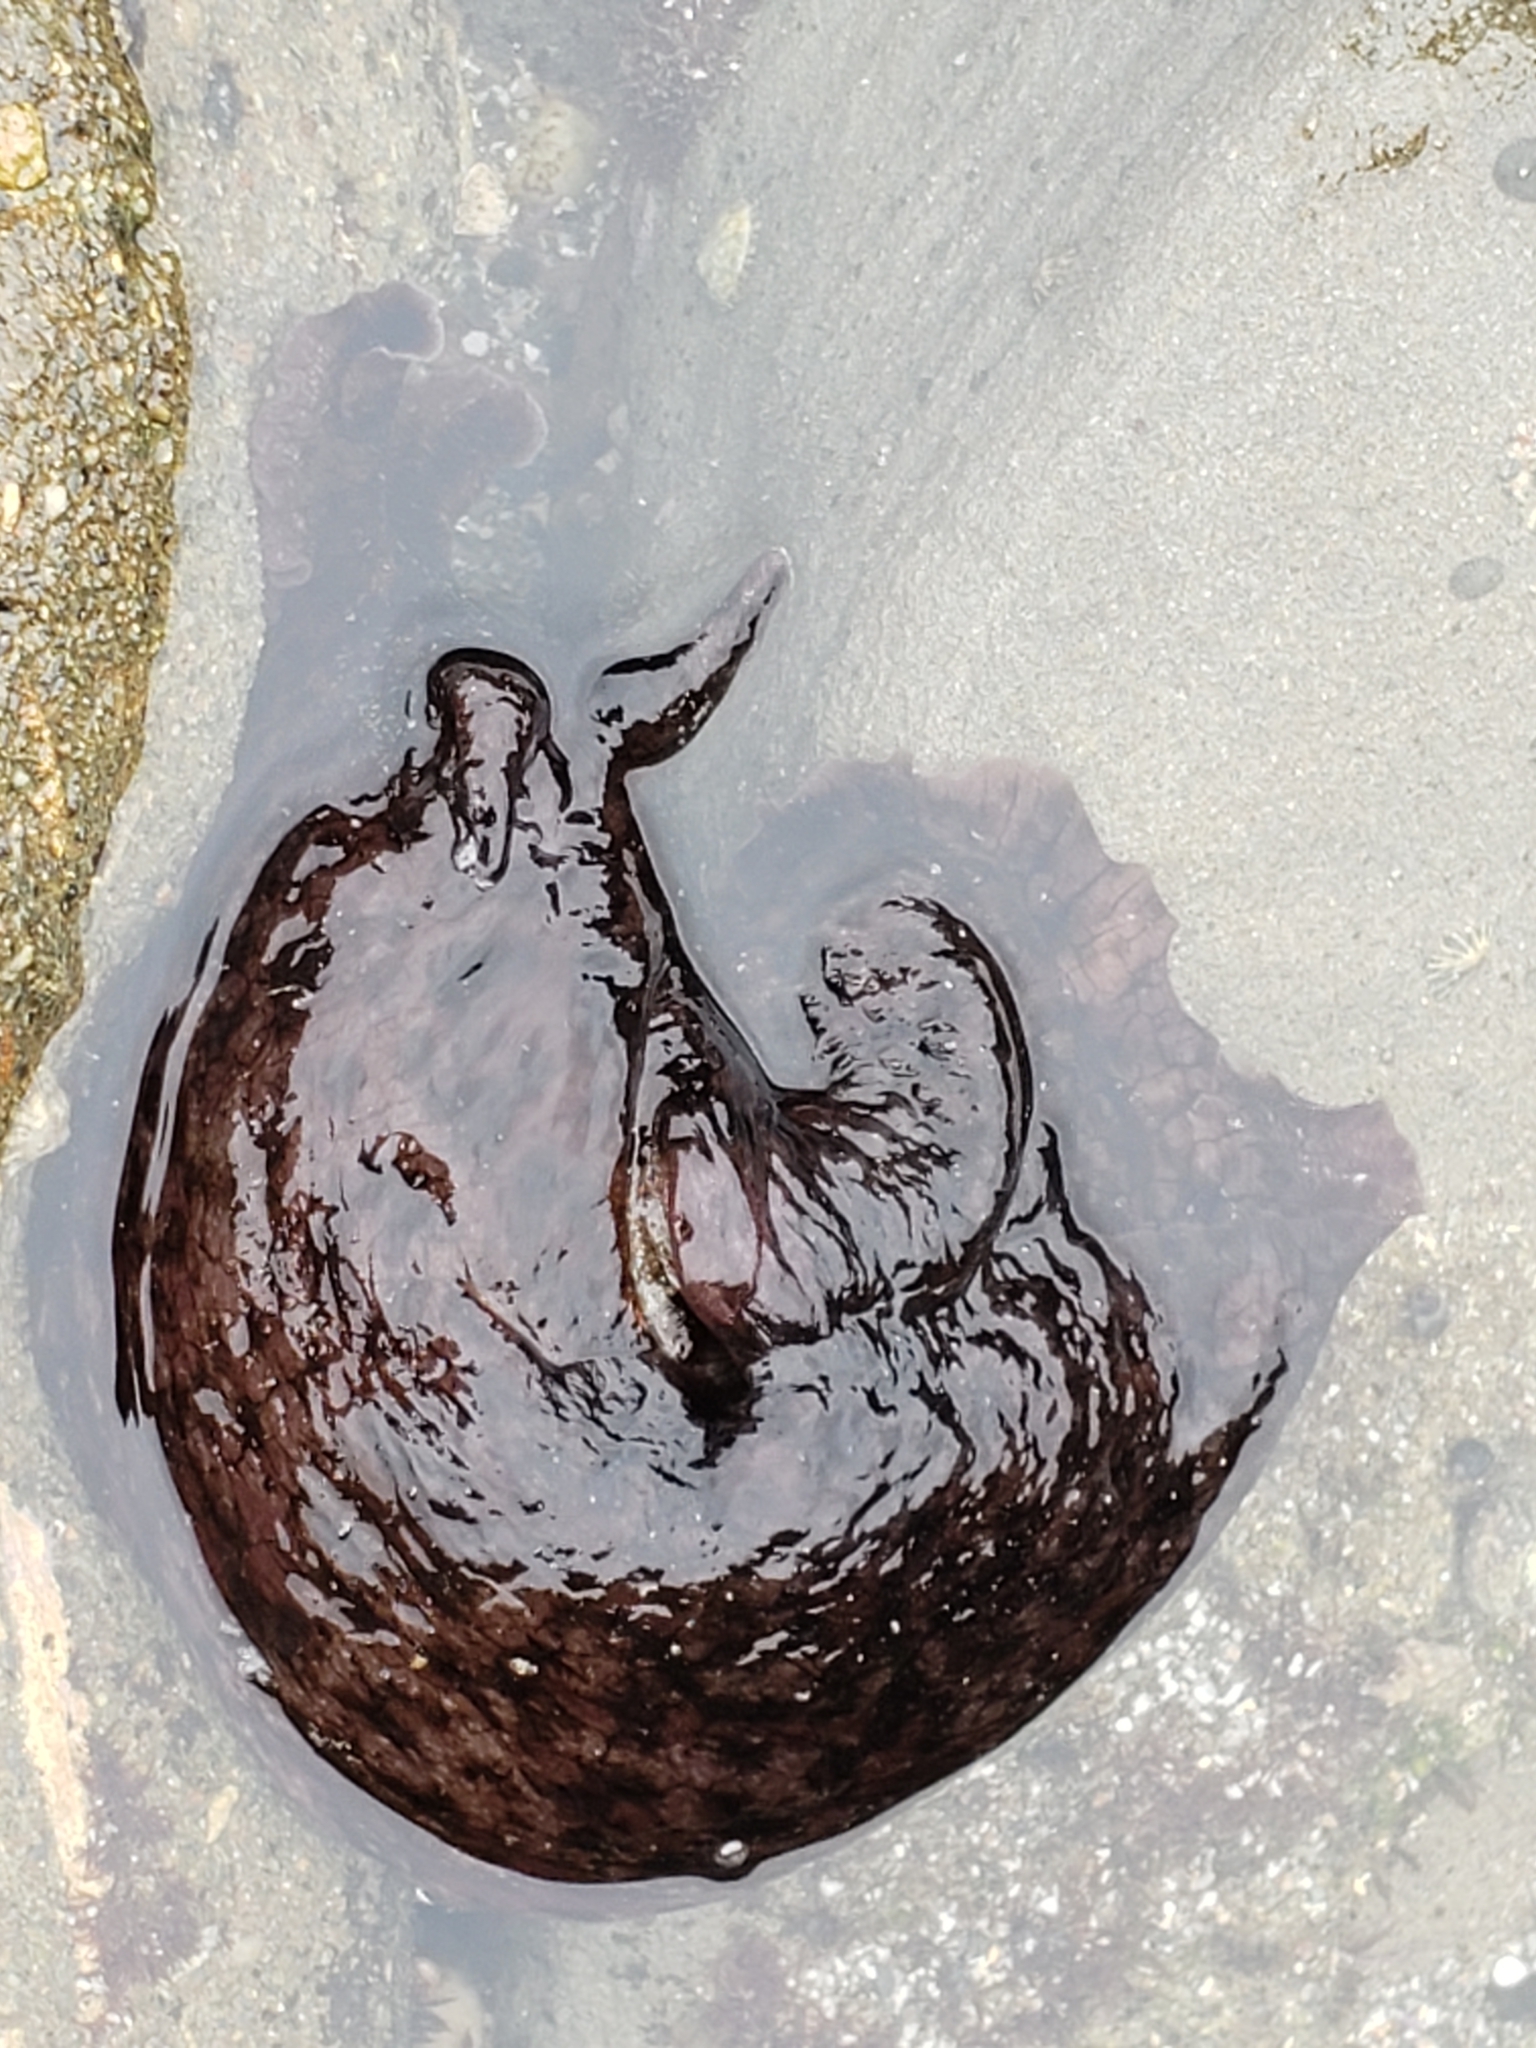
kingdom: Animalia
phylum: Mollusca
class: Gastropoda
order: Aplysiida
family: Aplysiidae
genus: Aplysia
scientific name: Aplysia californica
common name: California seahare
